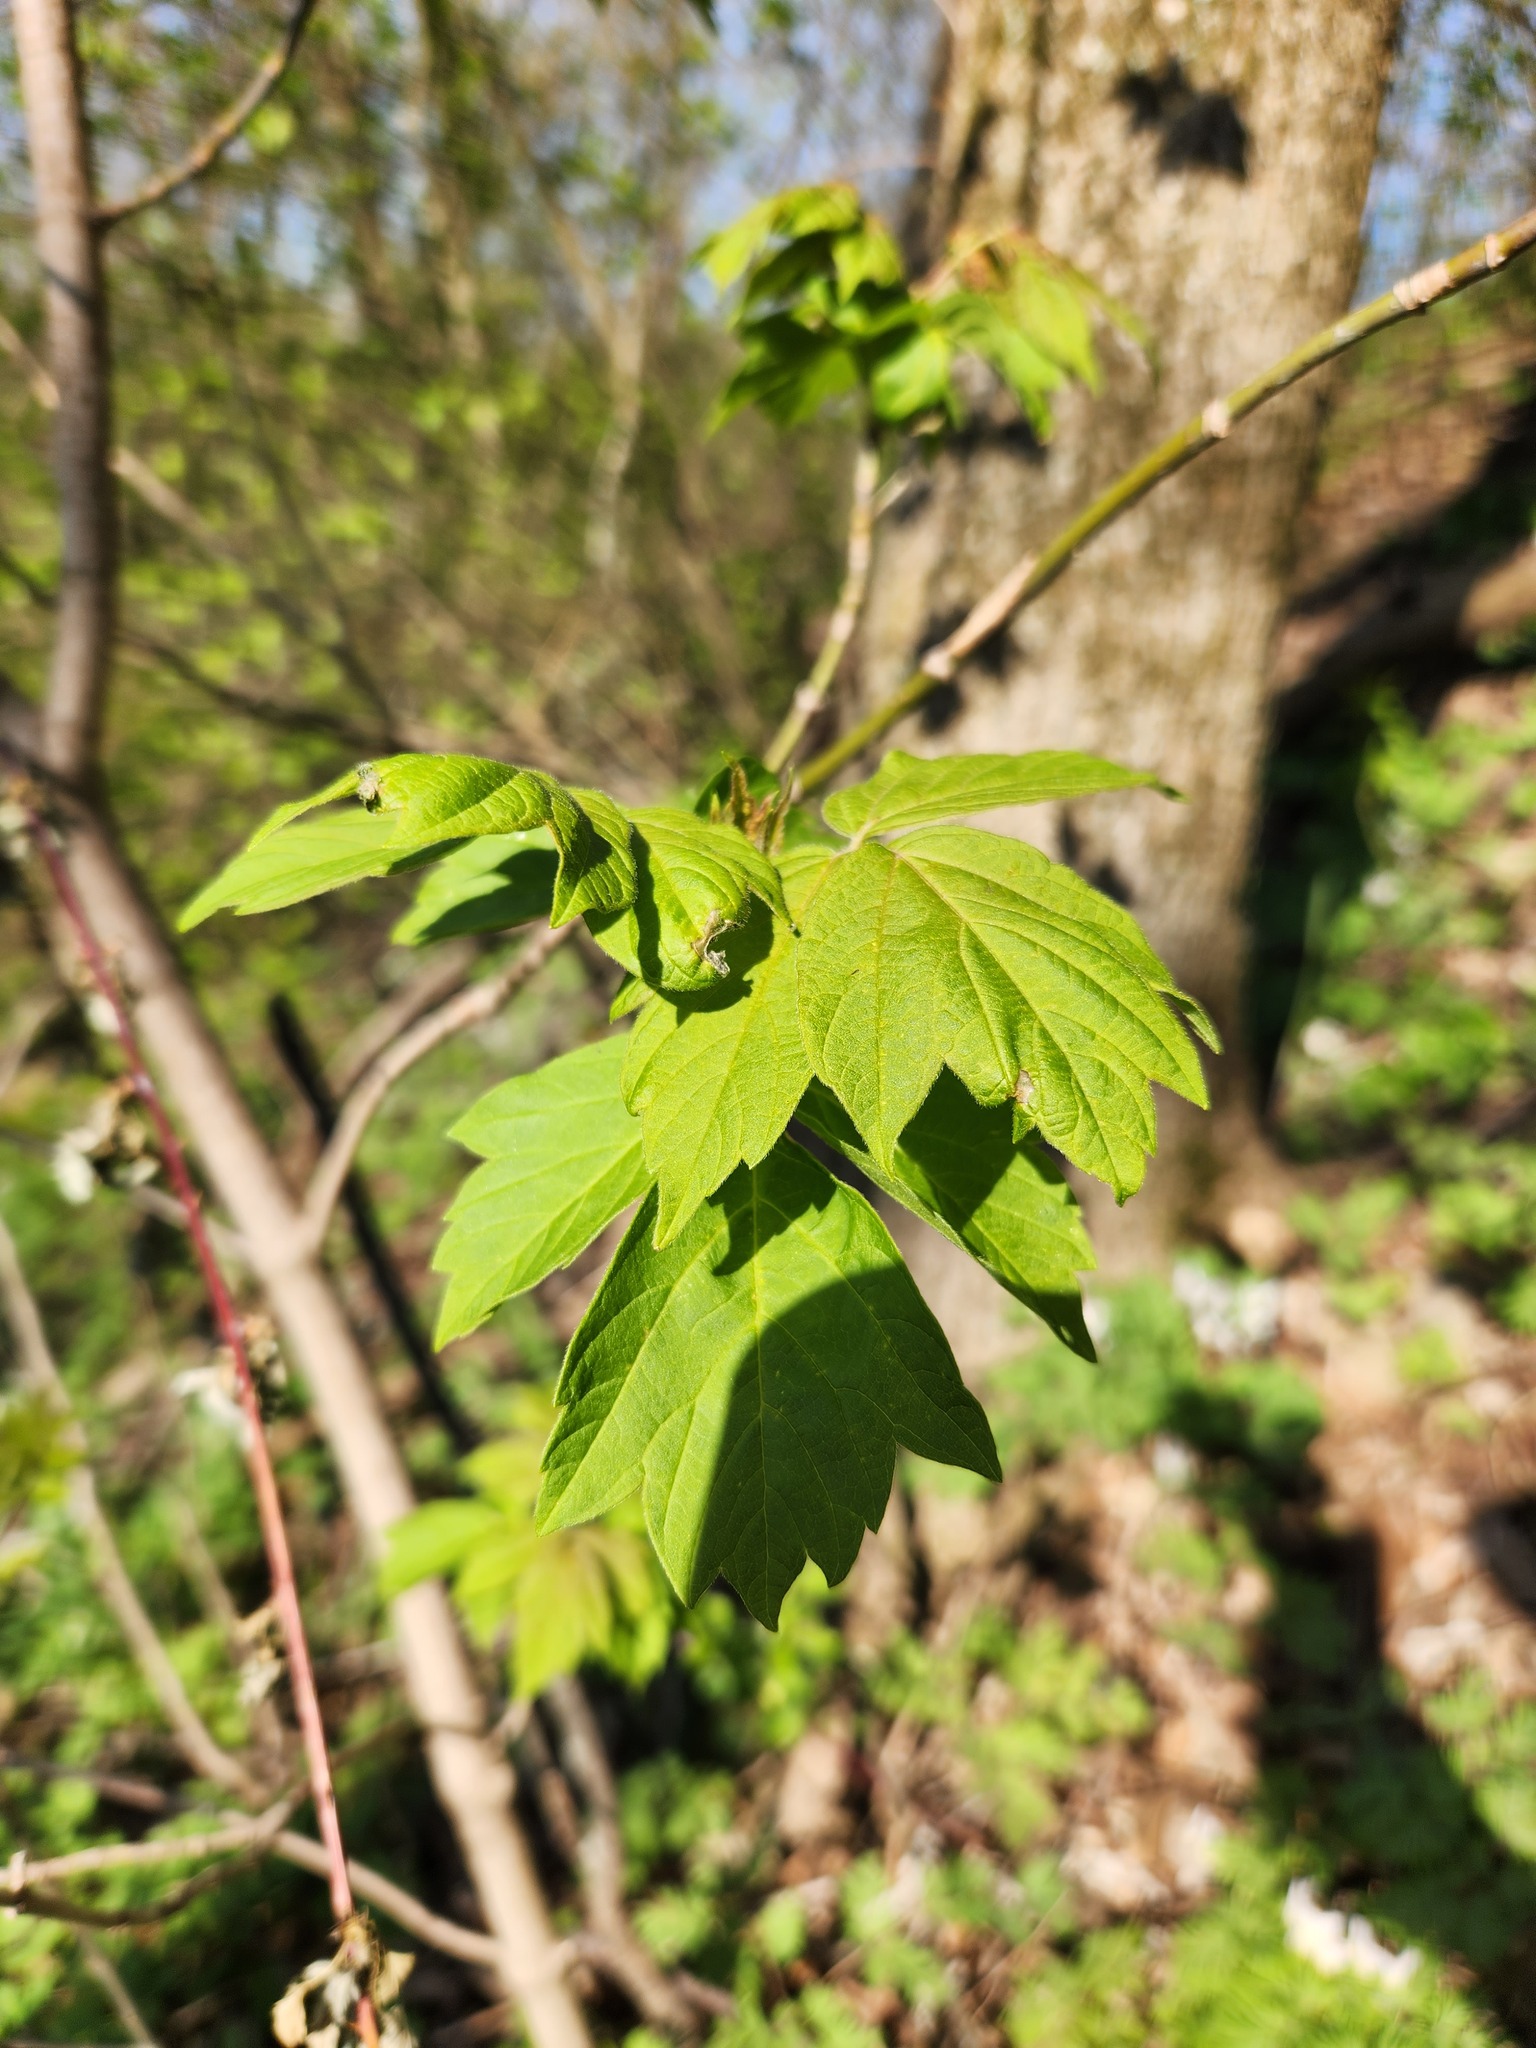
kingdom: Plantae
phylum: Tracheophyta
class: Magnoliopsida
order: Sapindales
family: Sapindaceae
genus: Acer
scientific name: Acer negundo
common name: Ashleaf maple
